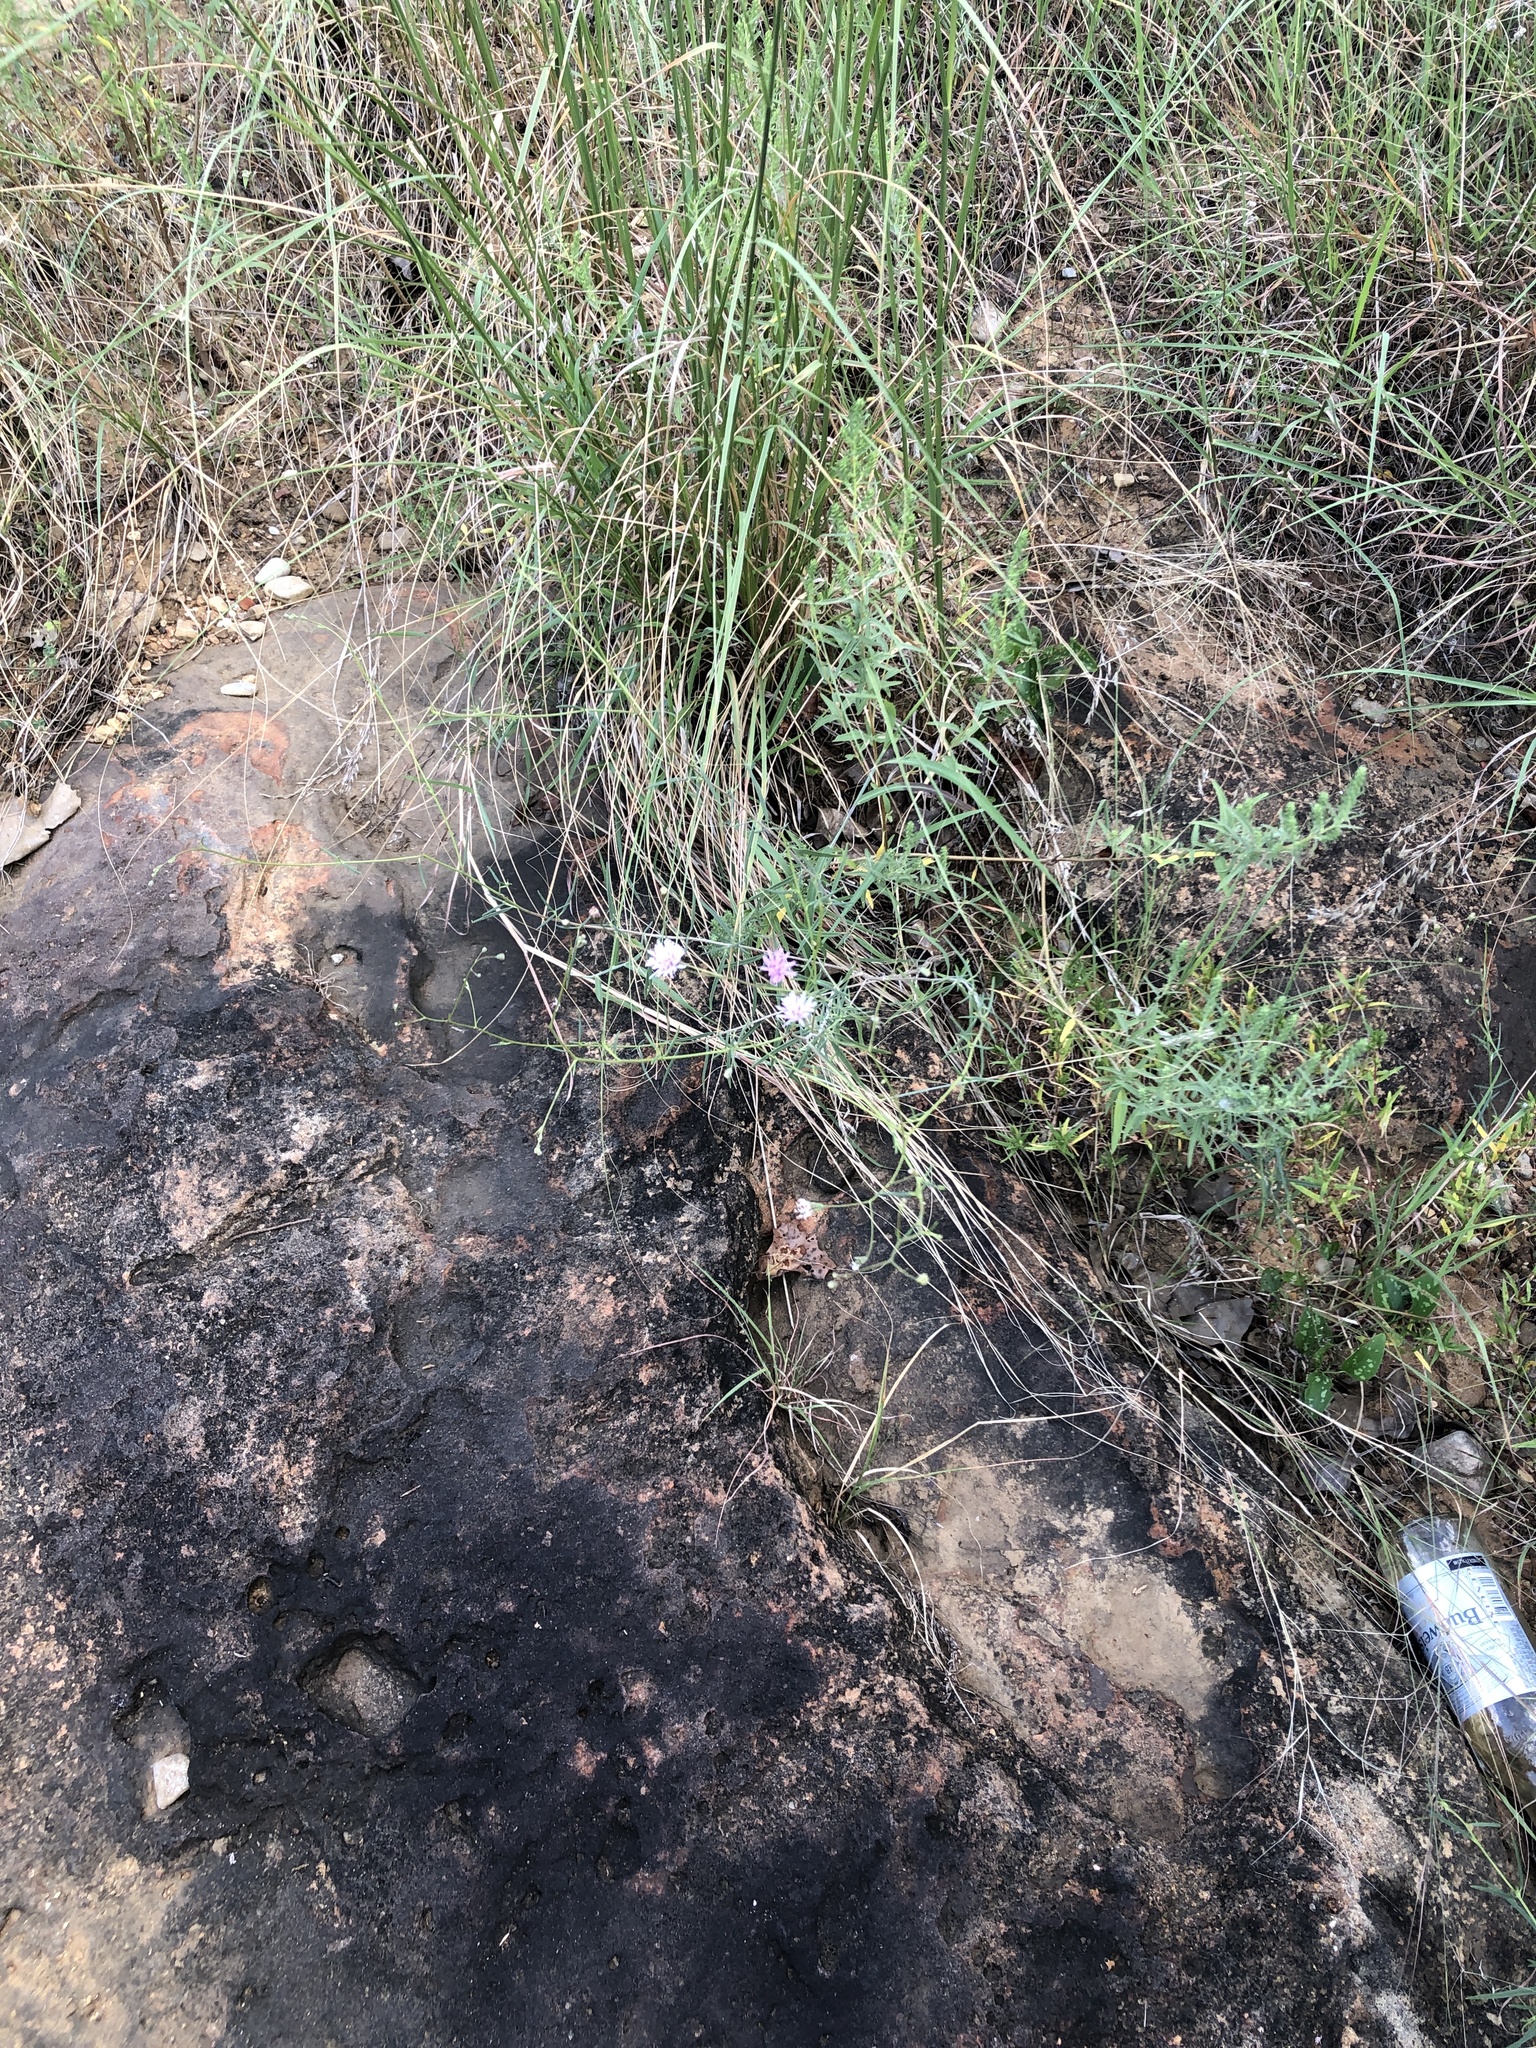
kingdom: Plantae
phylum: Tracheophyta
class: Magnoliopsida
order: Asterales
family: Asteraceae
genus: Palafoxia
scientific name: Palafoxia callosa
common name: Small palafox
